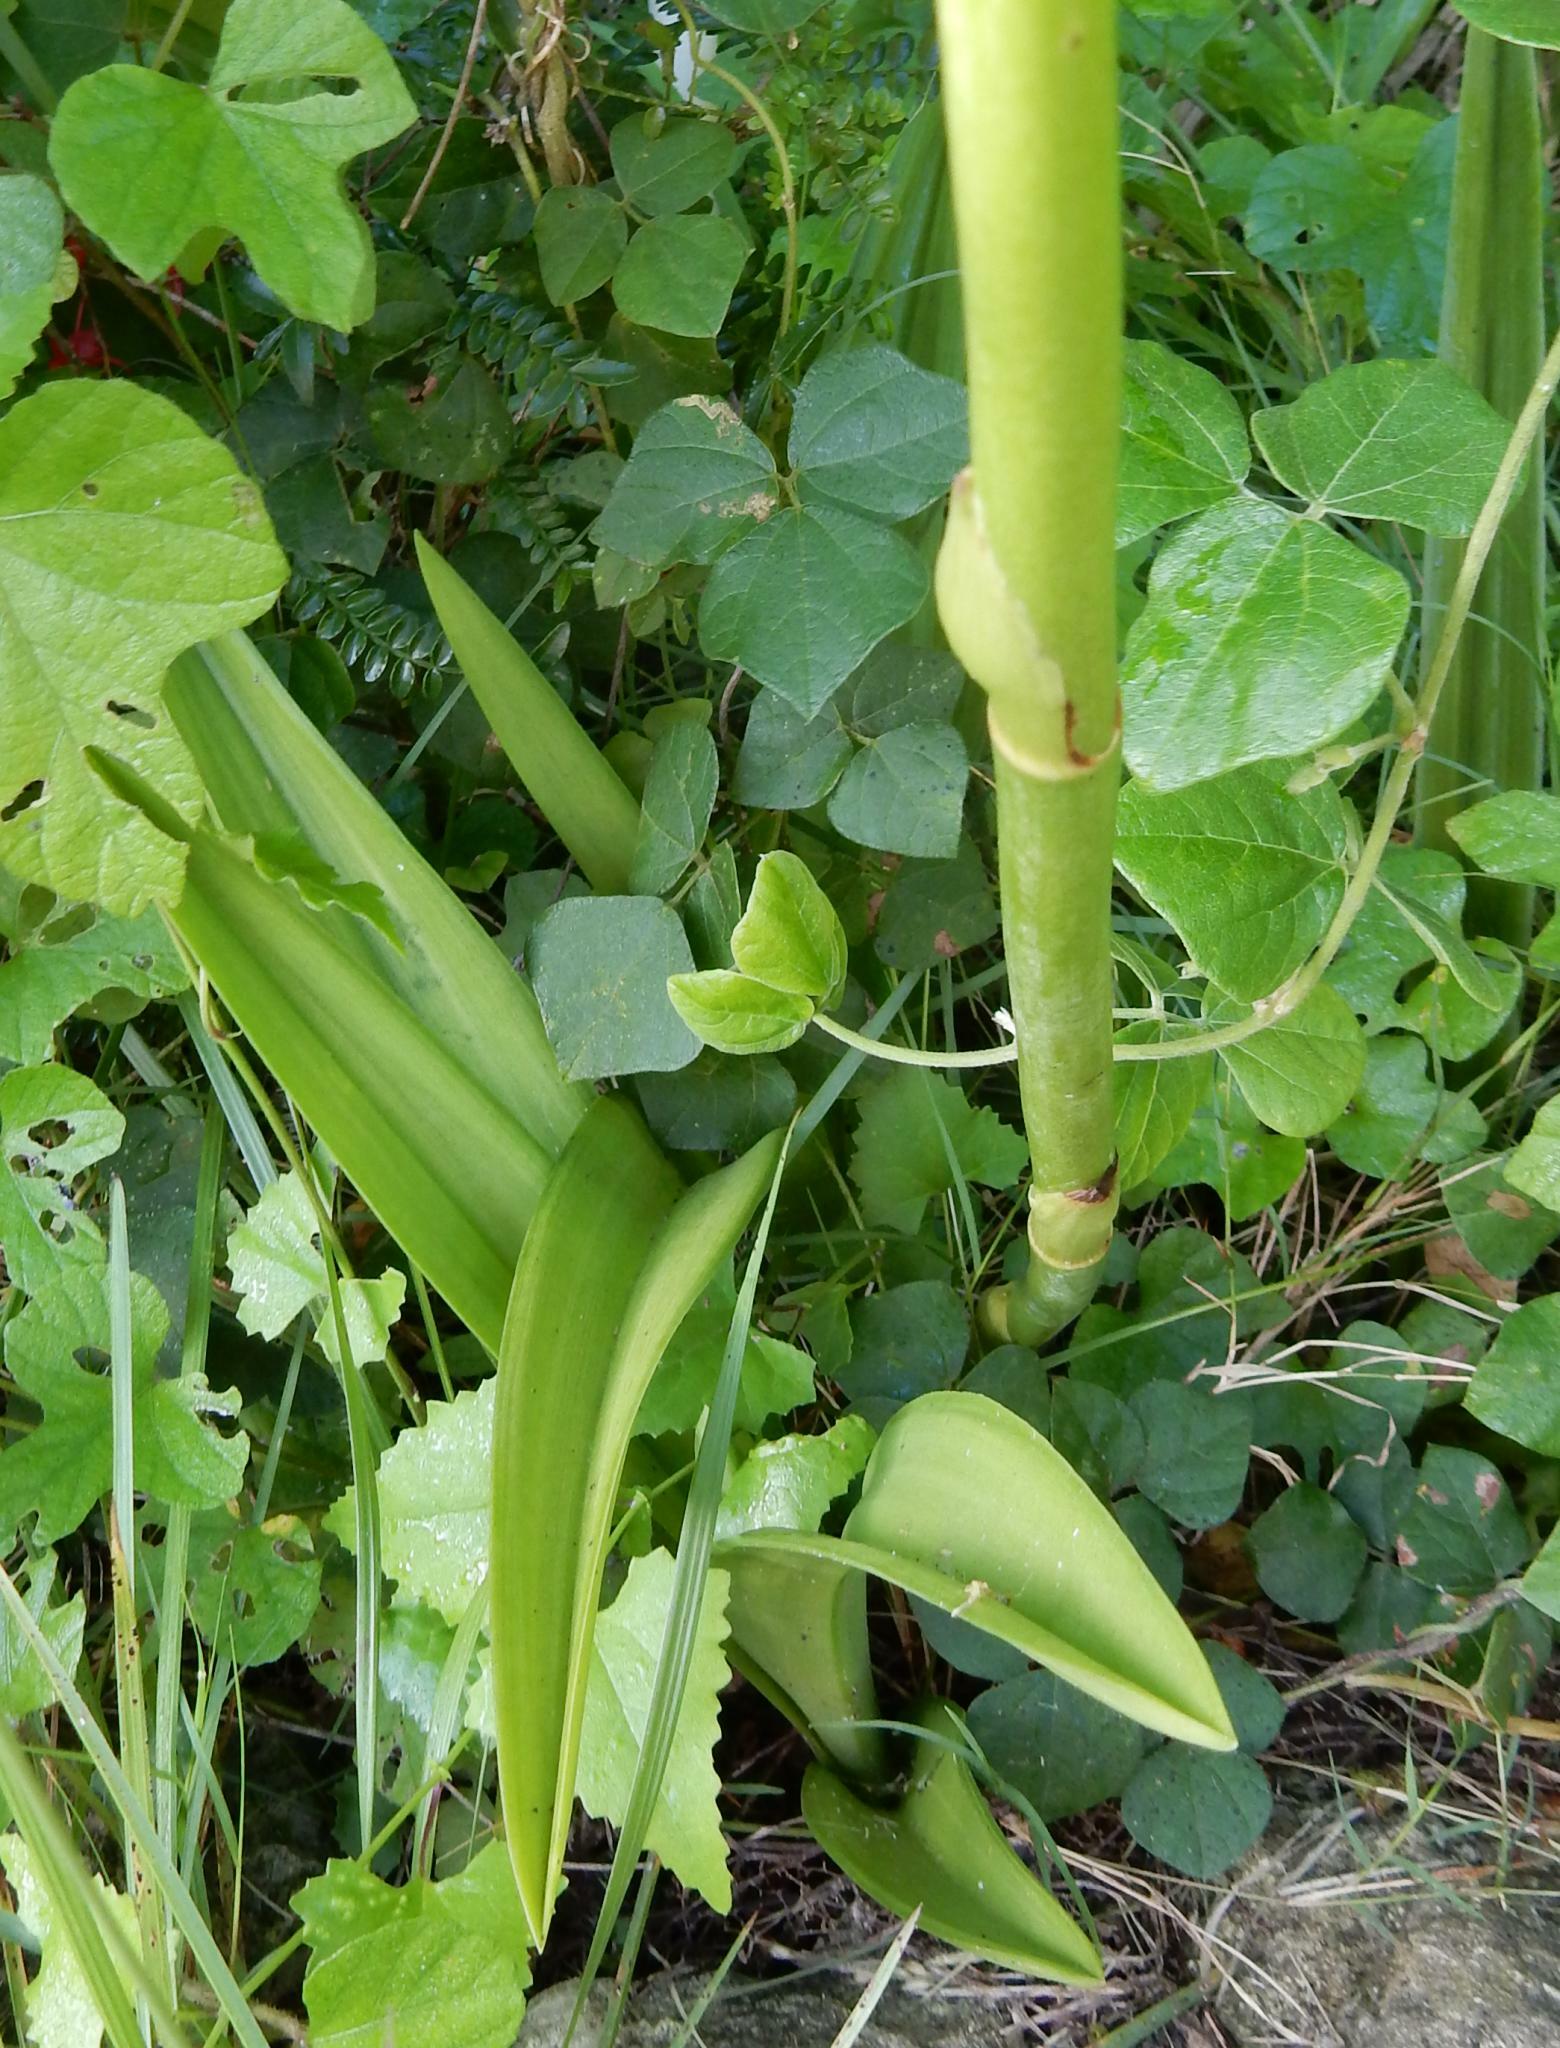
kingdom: Plantae
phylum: Tracheophyta
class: Liliopsida
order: Asparagales
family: Orchidaceae
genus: Eulophia
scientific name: Eulophia speciosa
